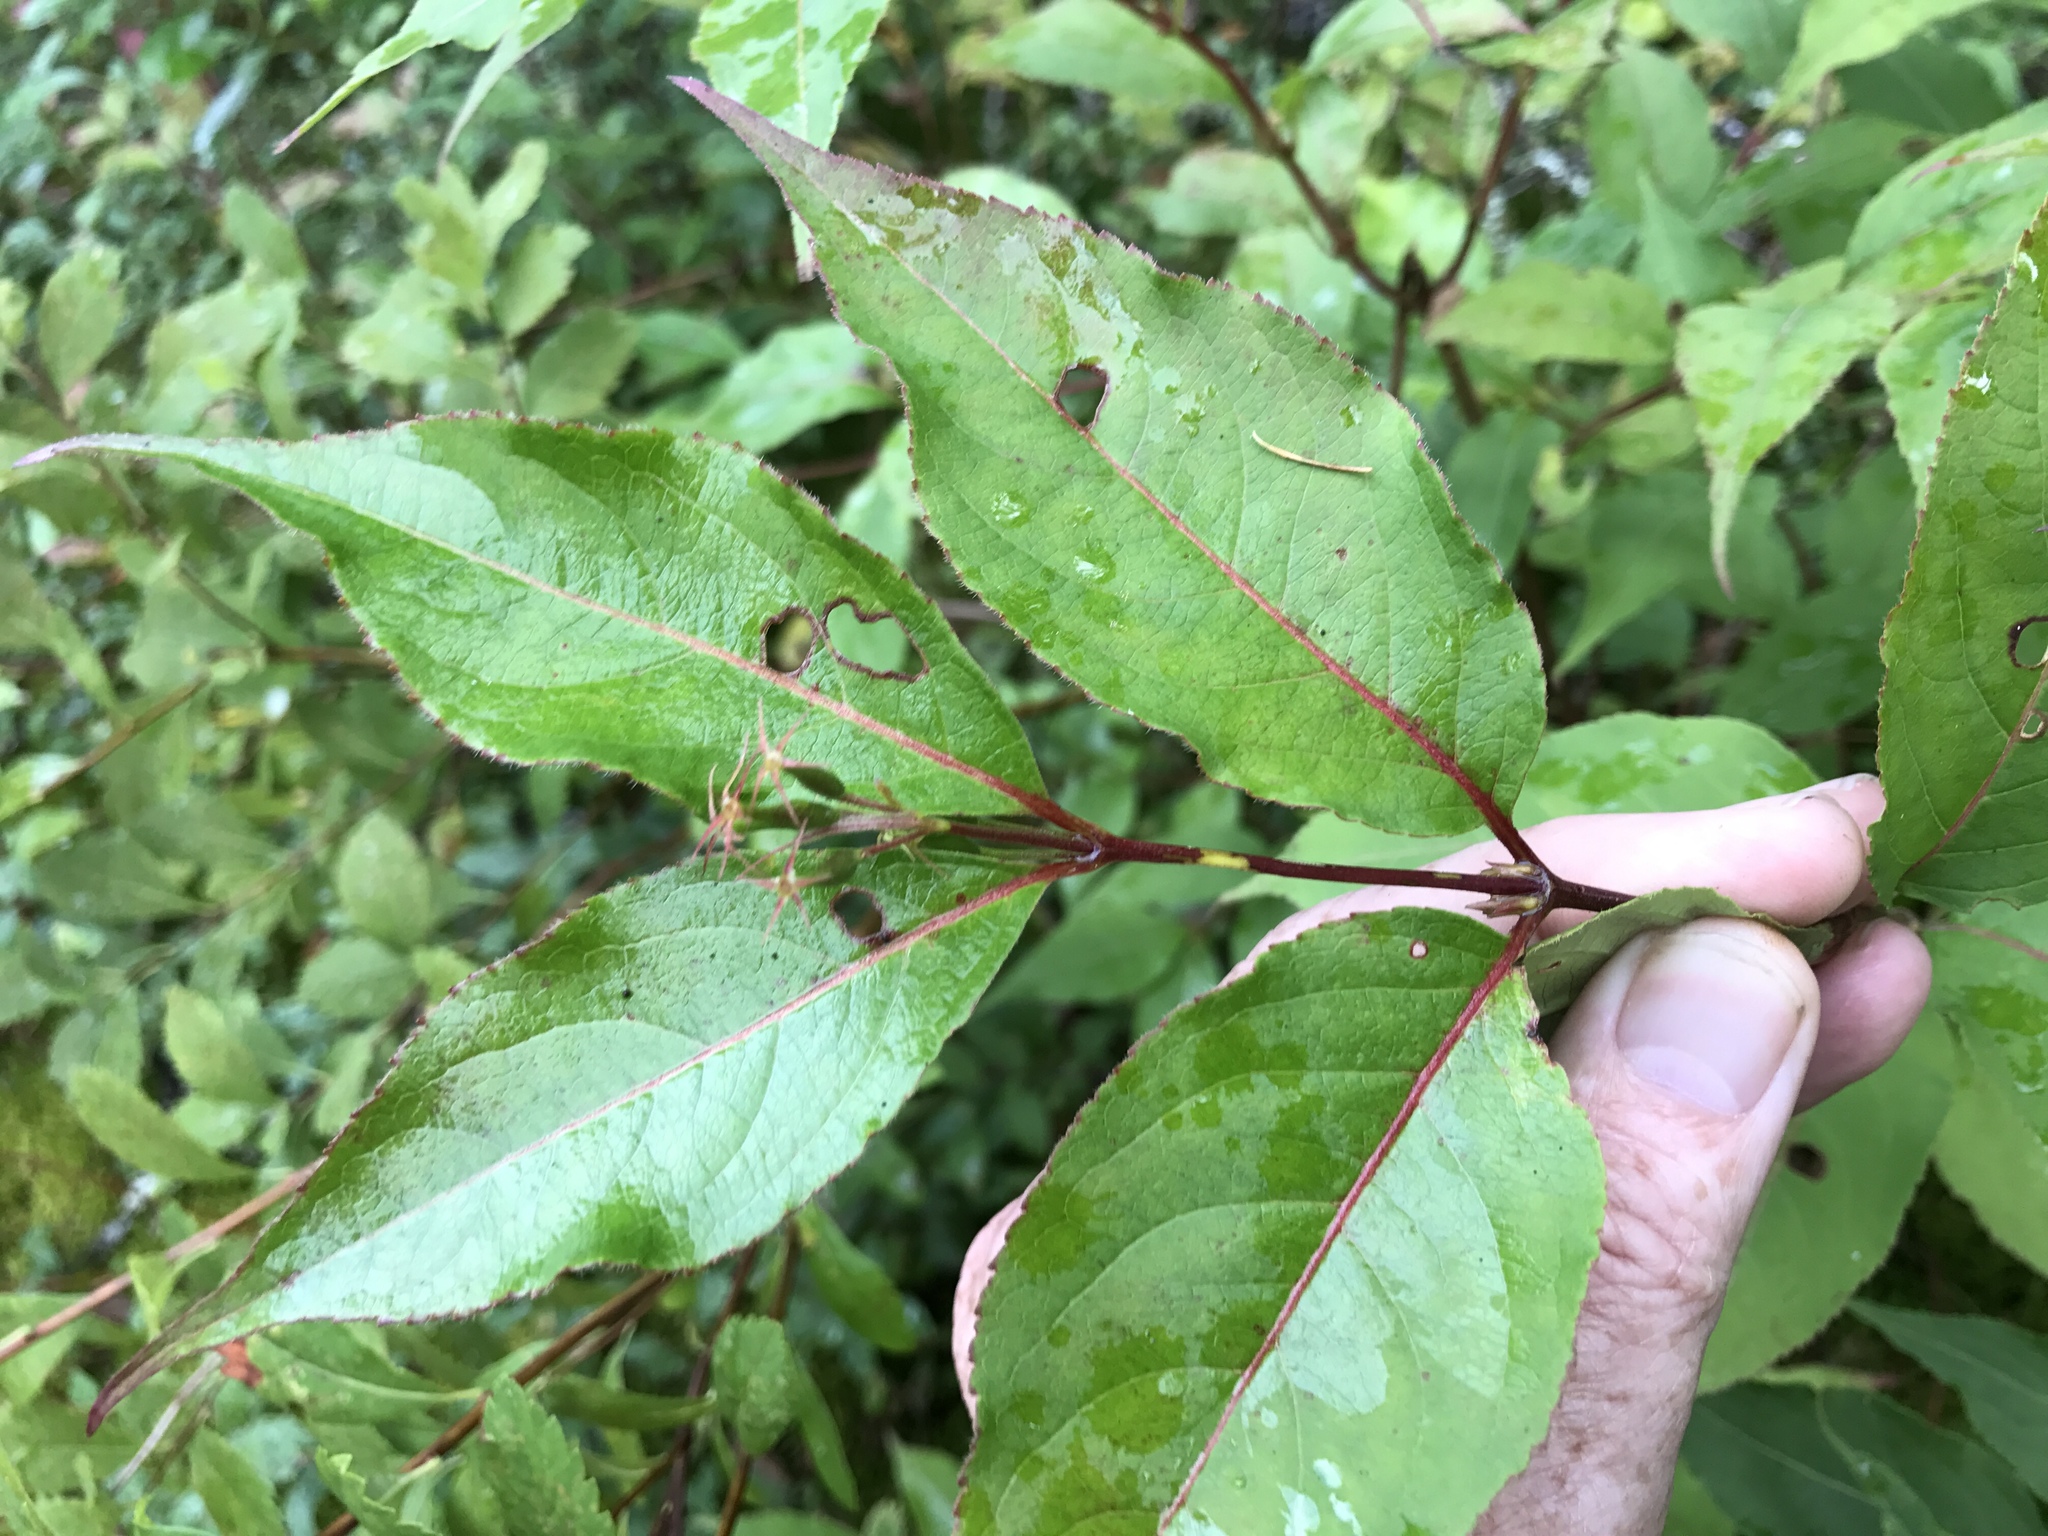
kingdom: Plantae
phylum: Tracheophyta
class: Magnoliopsida
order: Dipsacales
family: Caprifoliaceae
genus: Diervilla
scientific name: Diervilla lonicera
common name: Bush-honeysuckle
